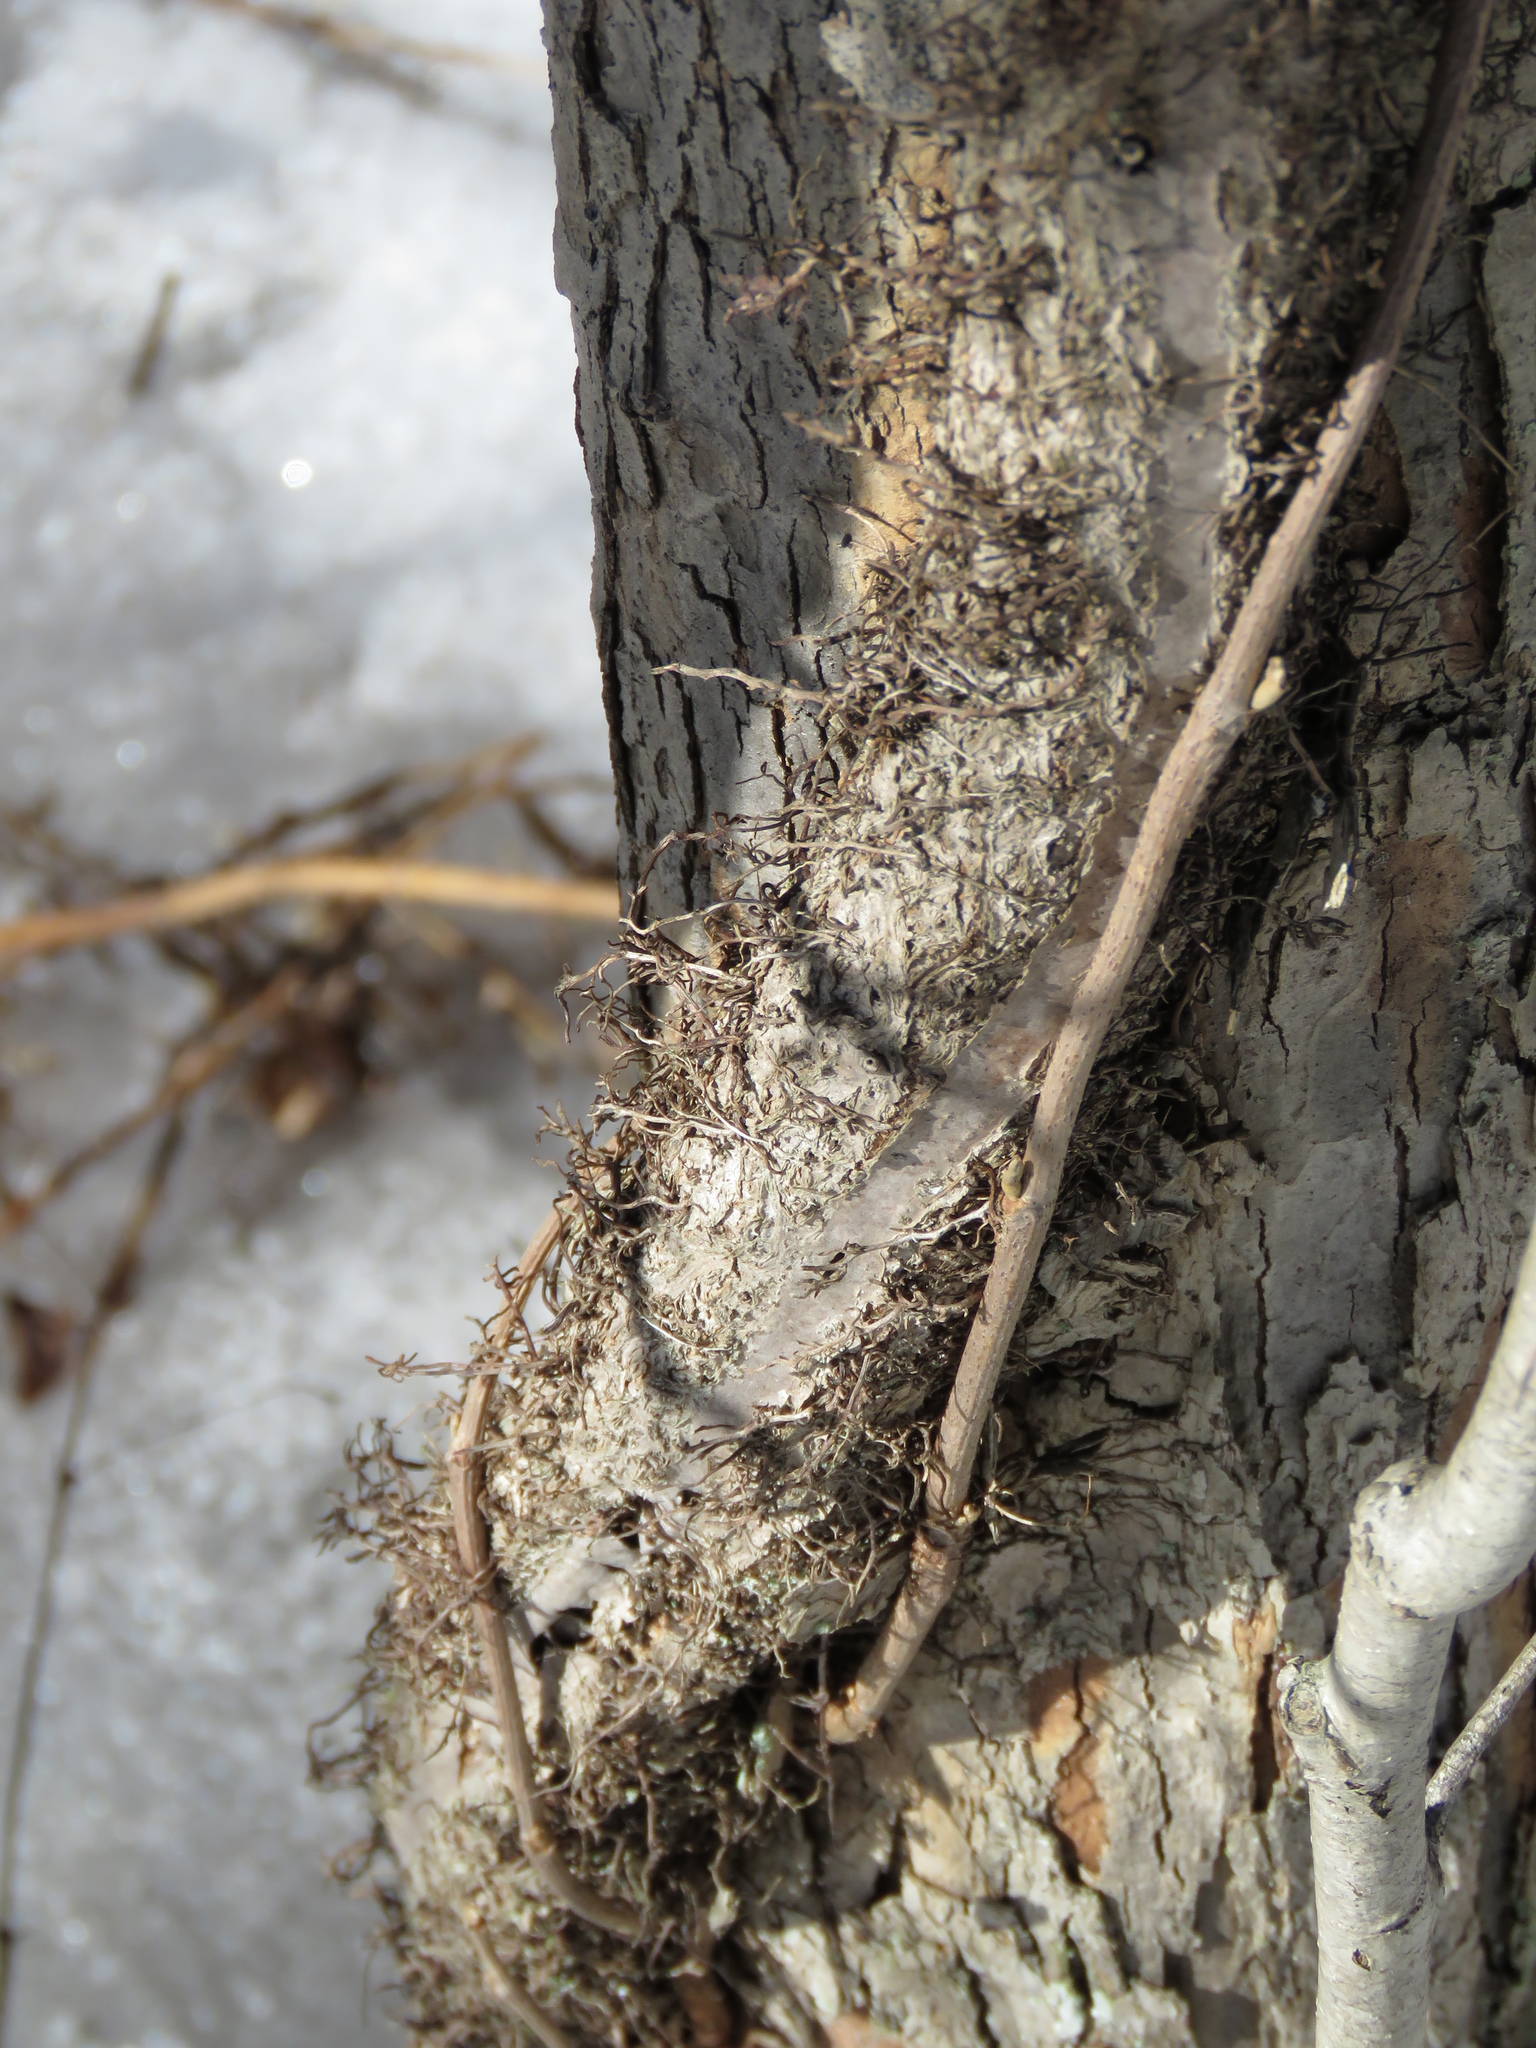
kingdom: Plantae
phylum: Tracheophyta
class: Magnoliopsida
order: Sapindales
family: Anacardiaceae
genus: Toxicodendron
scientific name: Toxicodendron radicans
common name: Poison ivy
